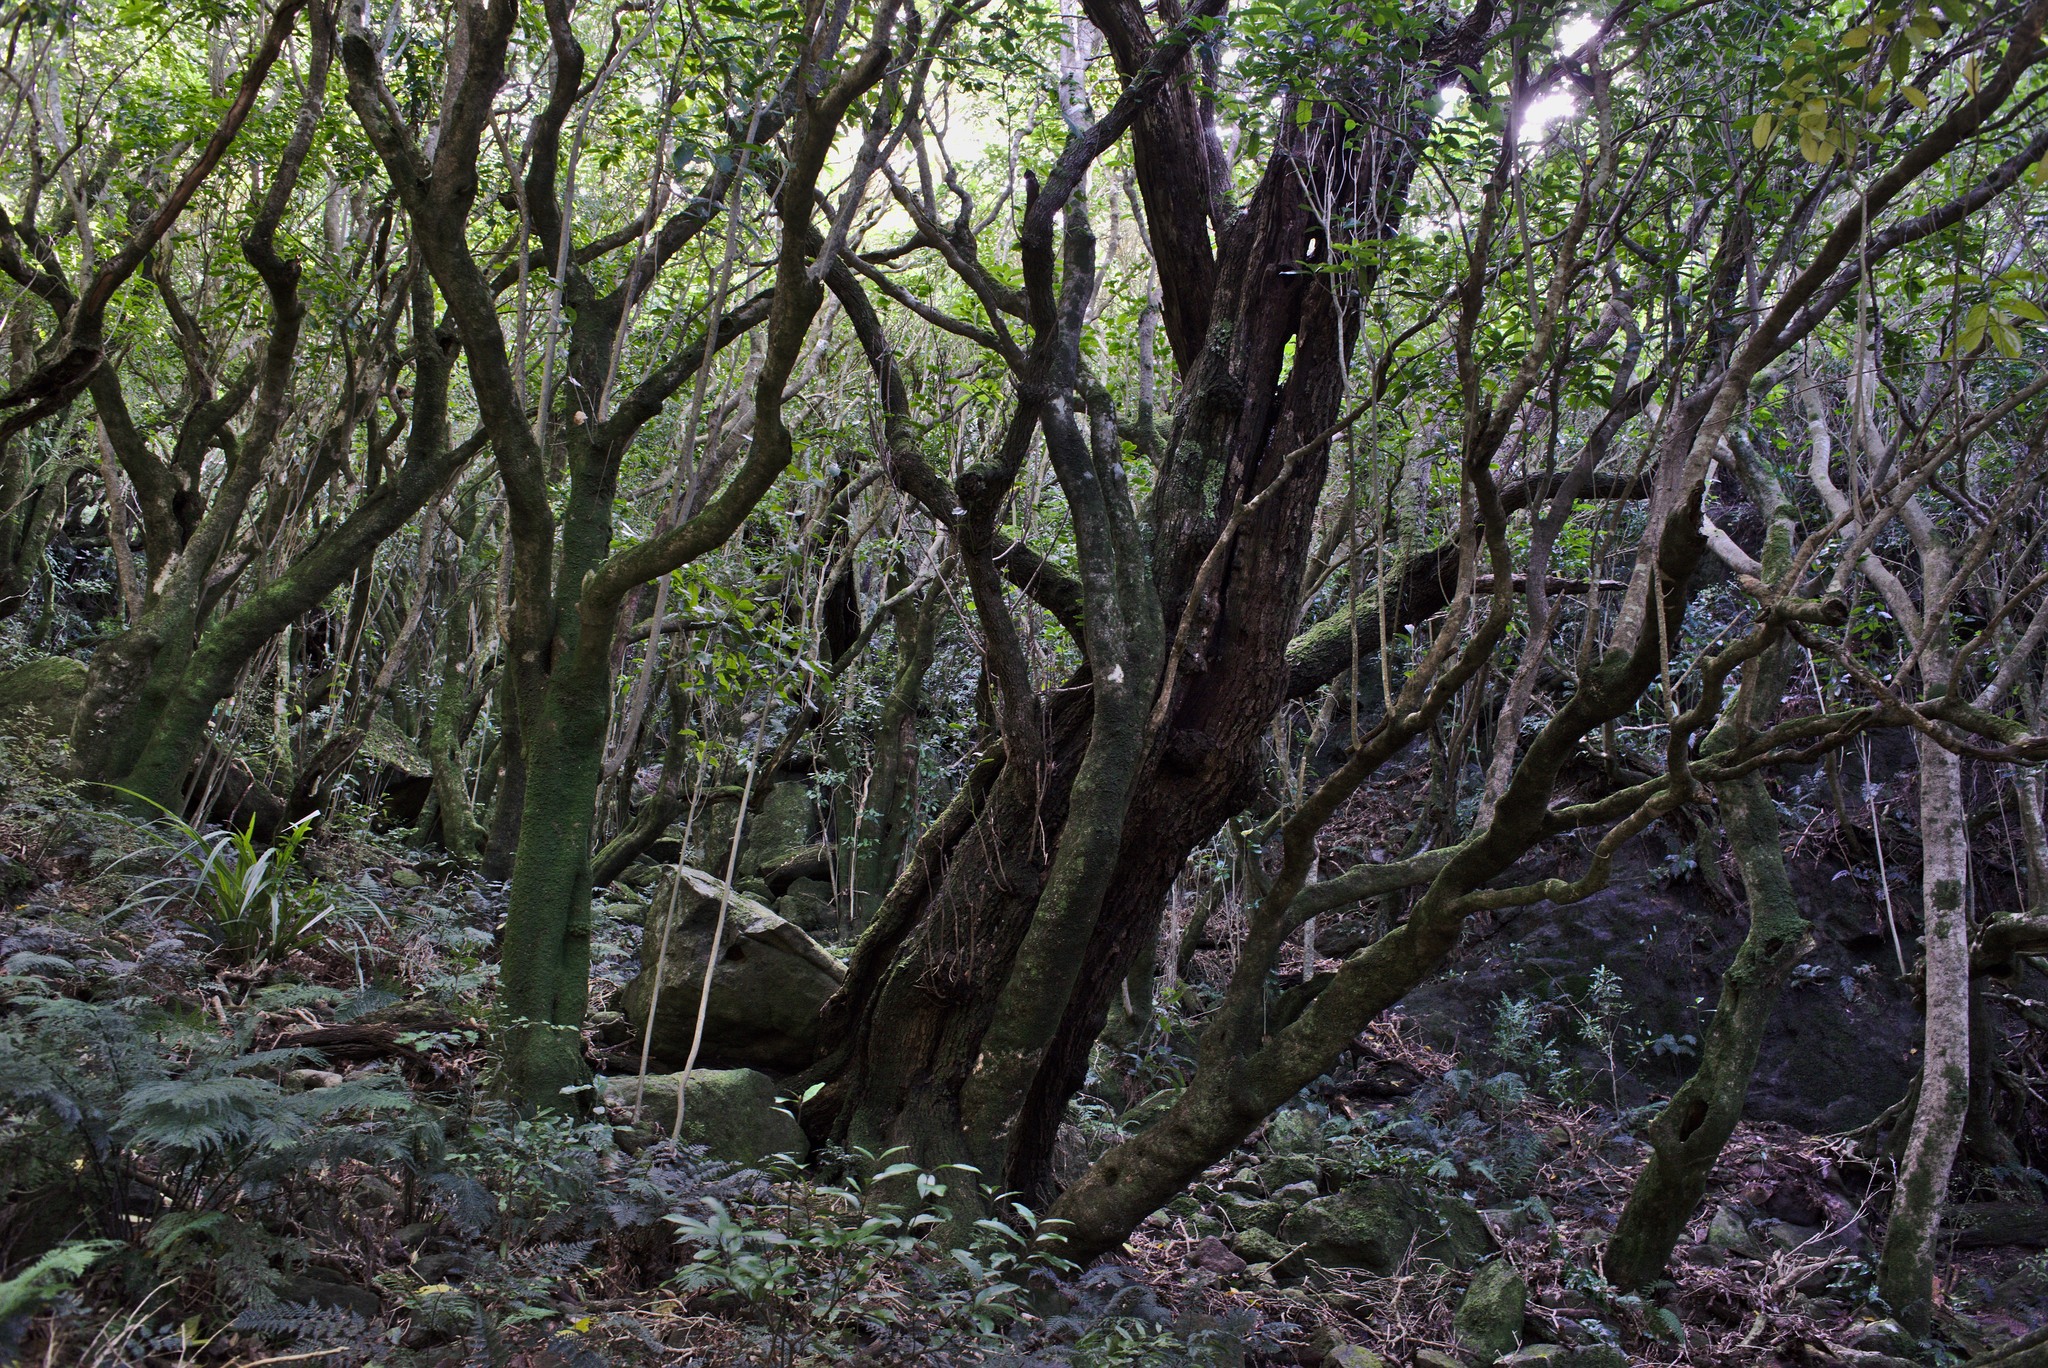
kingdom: Plantae
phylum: Tracheophyta
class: Magnoliopsida
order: Apiales
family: Griseliniaceae
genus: Griselinia
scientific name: Griselinia littoralis
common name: New zealand broadleaf
